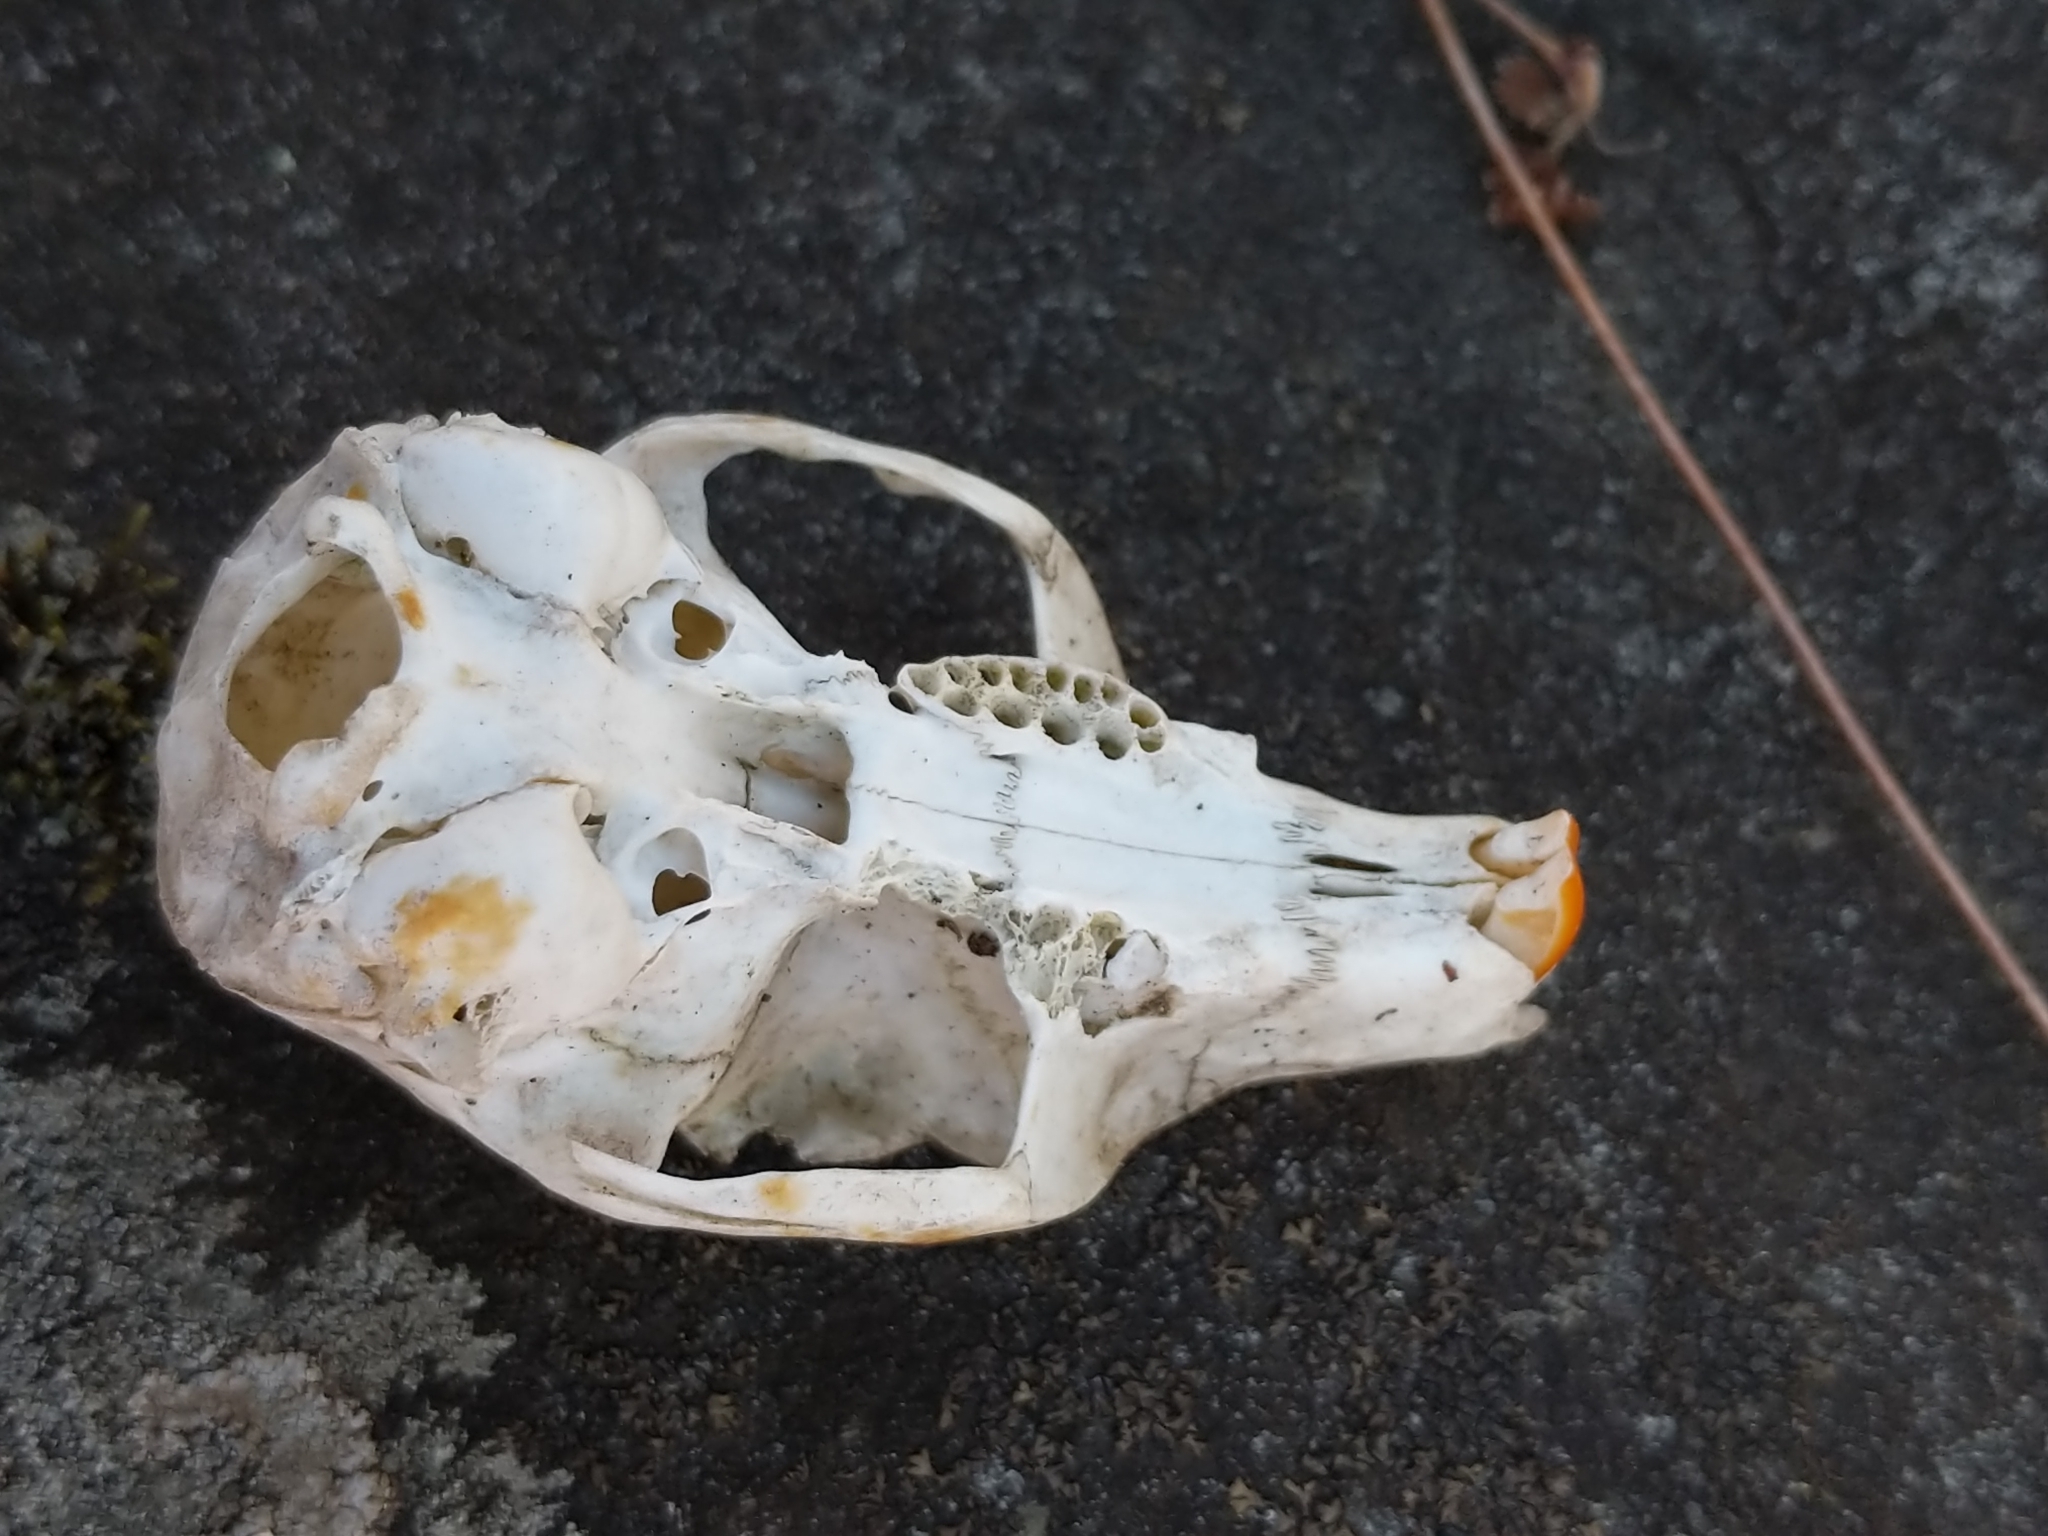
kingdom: Animalia
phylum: Chordata
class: Mammalia
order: Rodentia
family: Sciuridae
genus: Sciurus
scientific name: Sciurus carolinensis
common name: Eastern gray squirrel
